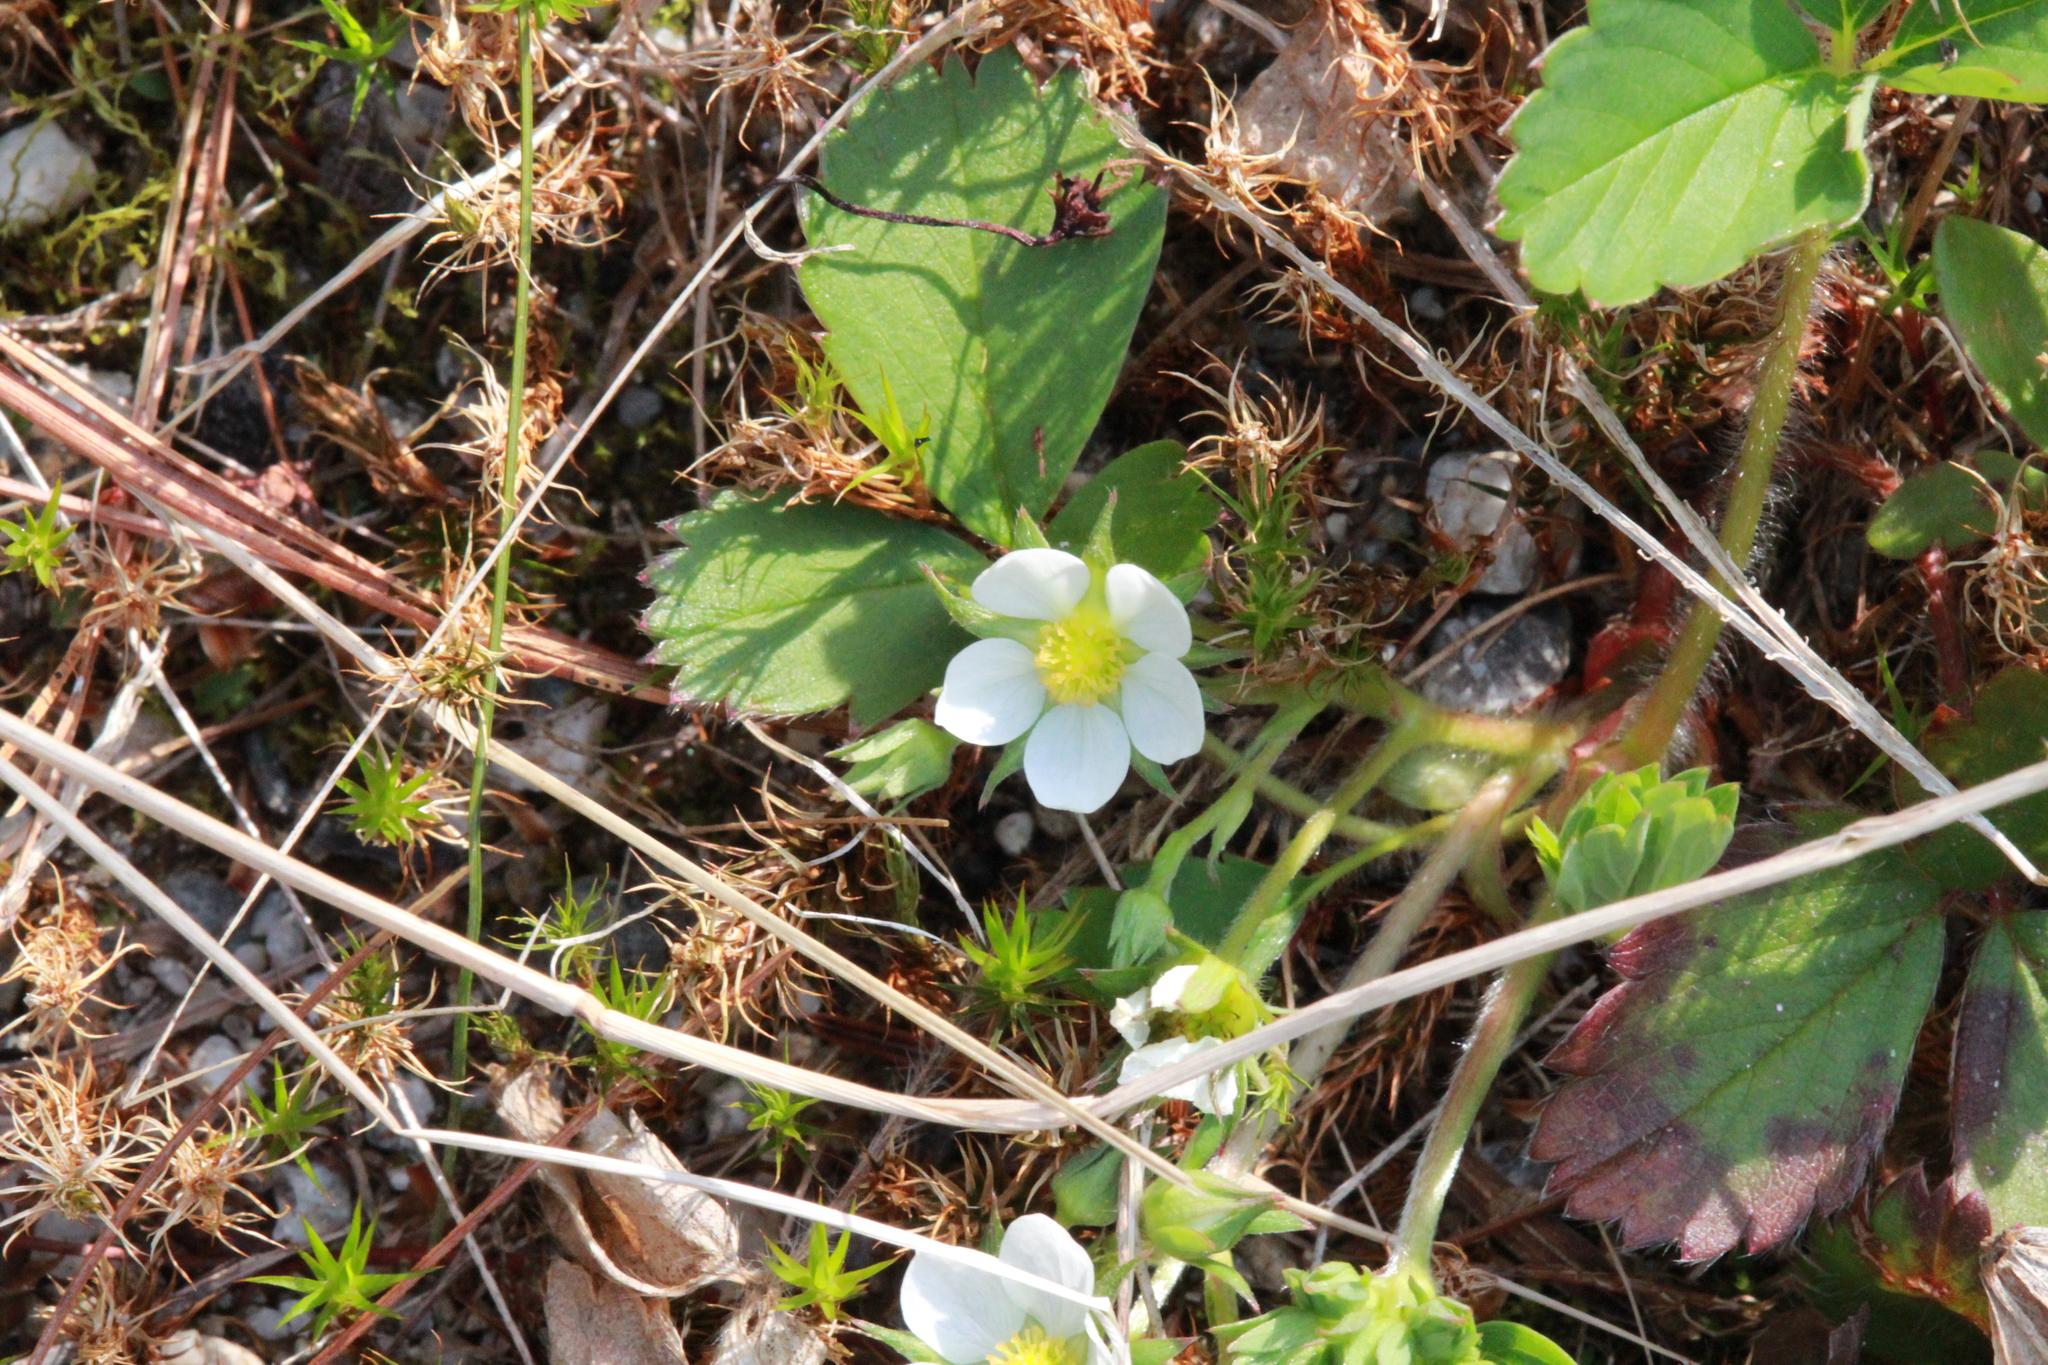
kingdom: Plantae
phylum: Tracheophyta
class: Magnoliopsida
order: Rosales
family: Rosaceae
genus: Fragaria
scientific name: Fragaria virginiana
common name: Thickleaved wild strawberry
